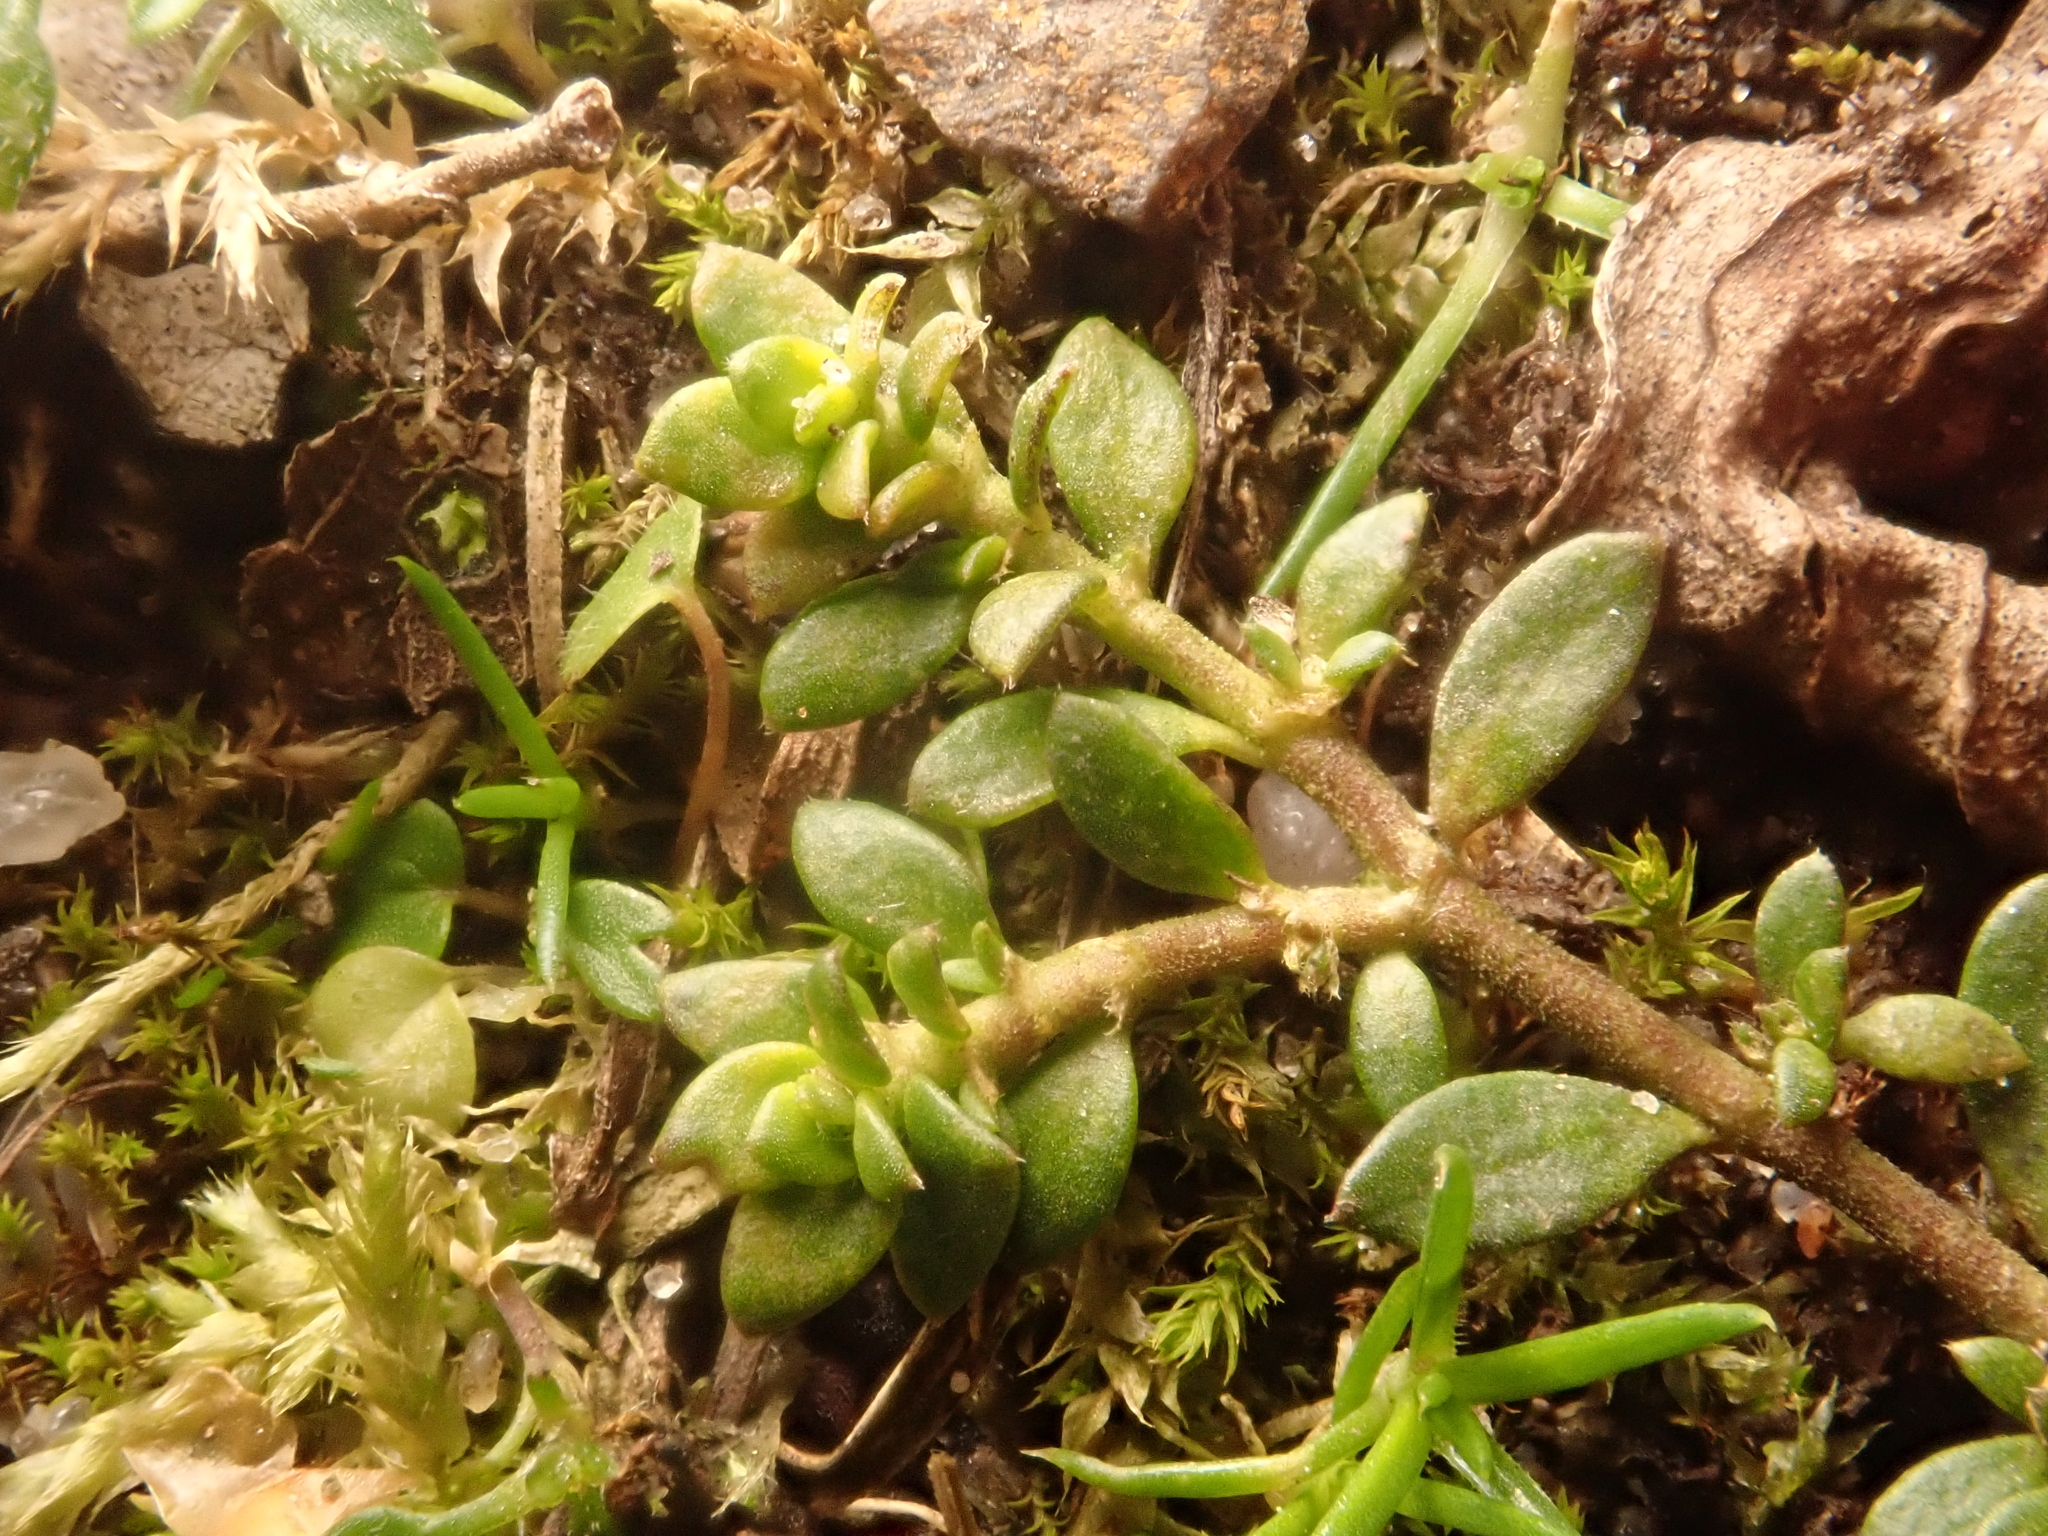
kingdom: Plantae
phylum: Tracheophyta
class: Magnoliopsida
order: Caryophyllales
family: Caryophyllaceae
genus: Herniaria
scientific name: Herniaria glabra
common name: Smooth rupturewort
